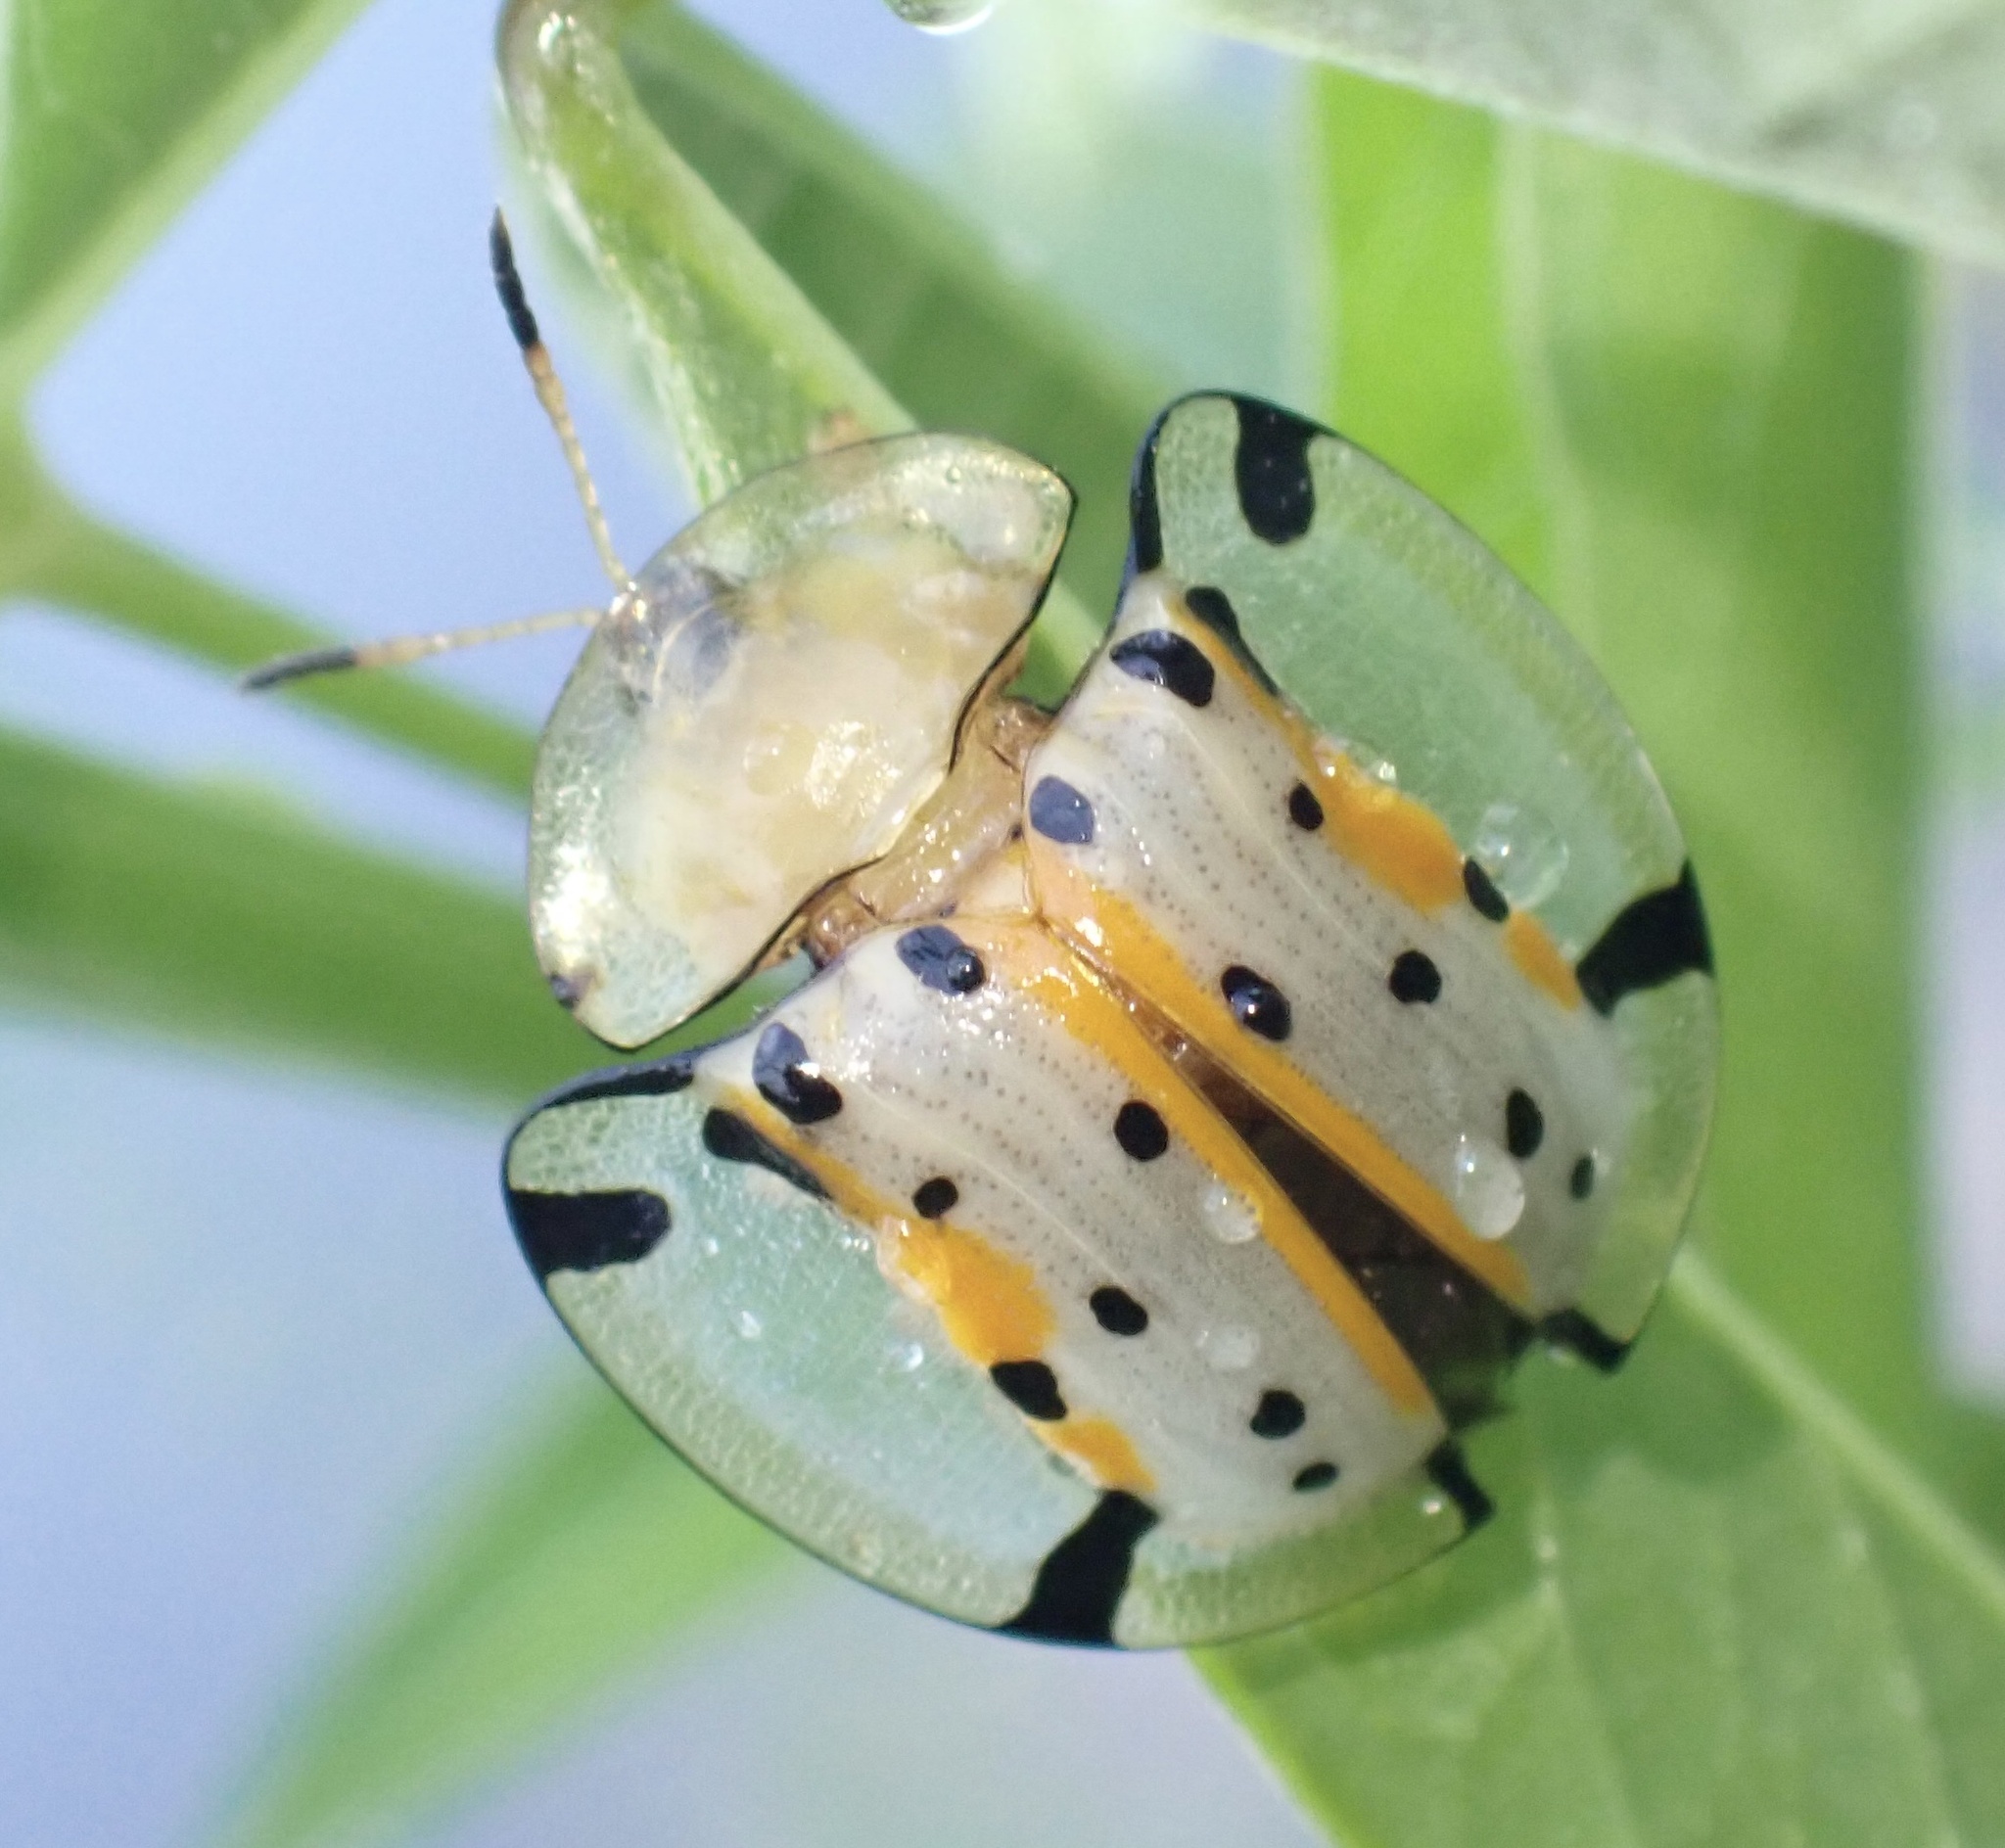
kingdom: Animalia
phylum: Arthropoda
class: Insecta
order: Coleoptera
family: Chrysomelidae
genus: Aspidimorpha
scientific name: Aspidimorpha miliaris
